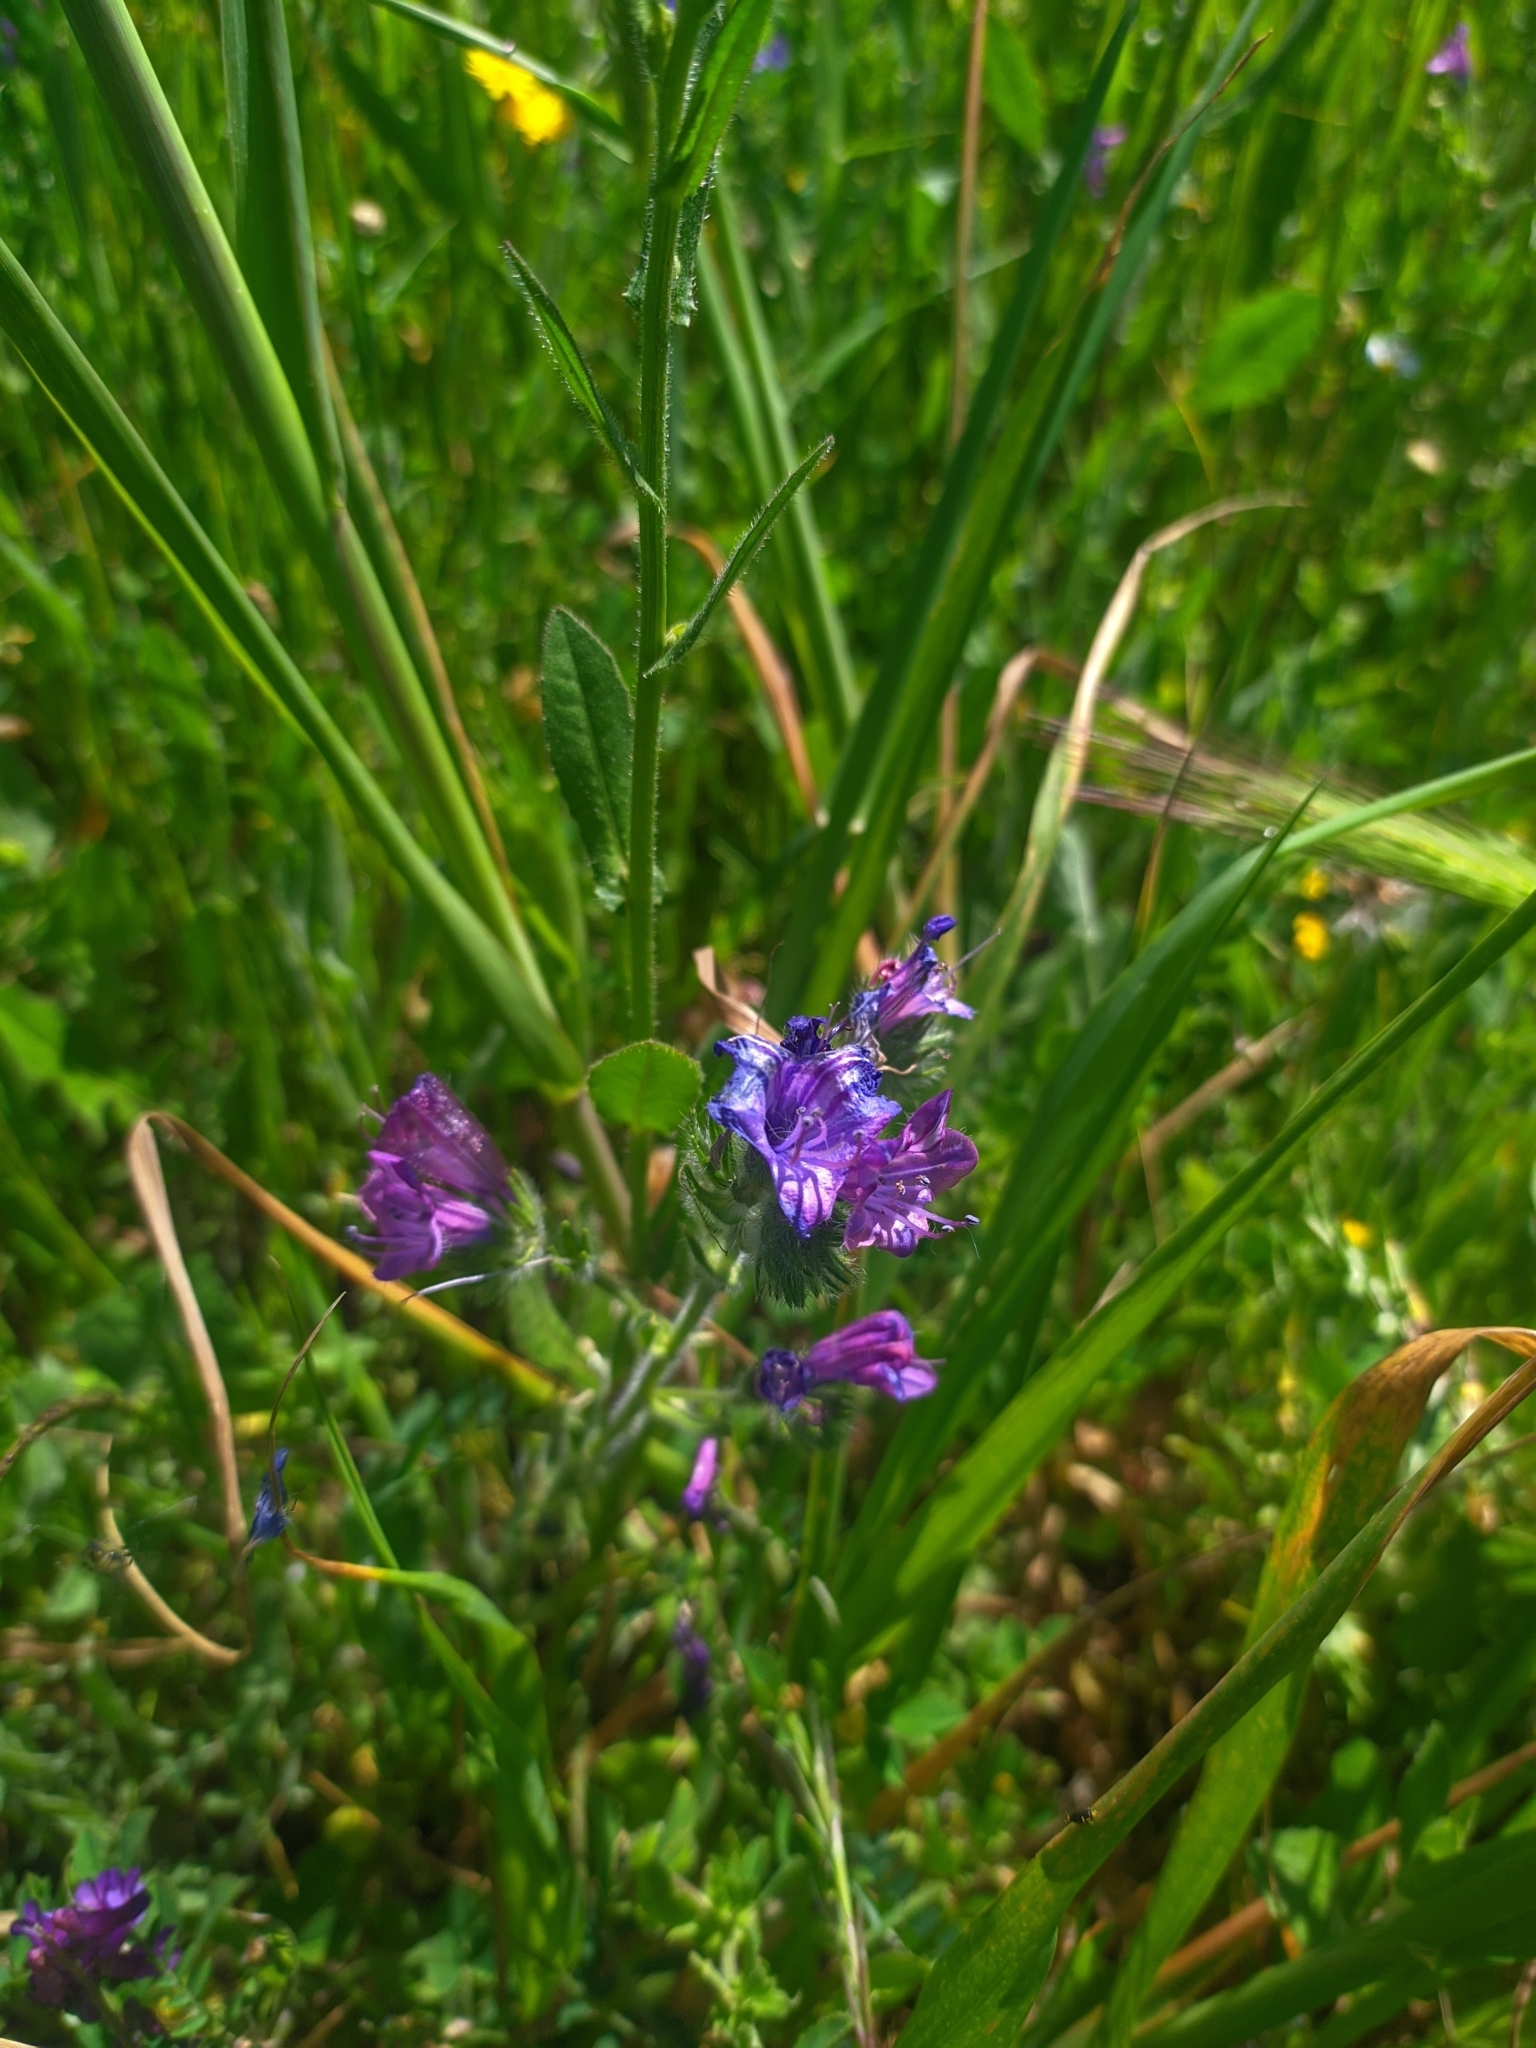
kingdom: Plantae
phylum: Tracheophyta
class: Magnoliopsida
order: Boraginales
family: Boraginaceae
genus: Echium
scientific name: Echium plantagineum
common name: Purple viper's-bugloss
